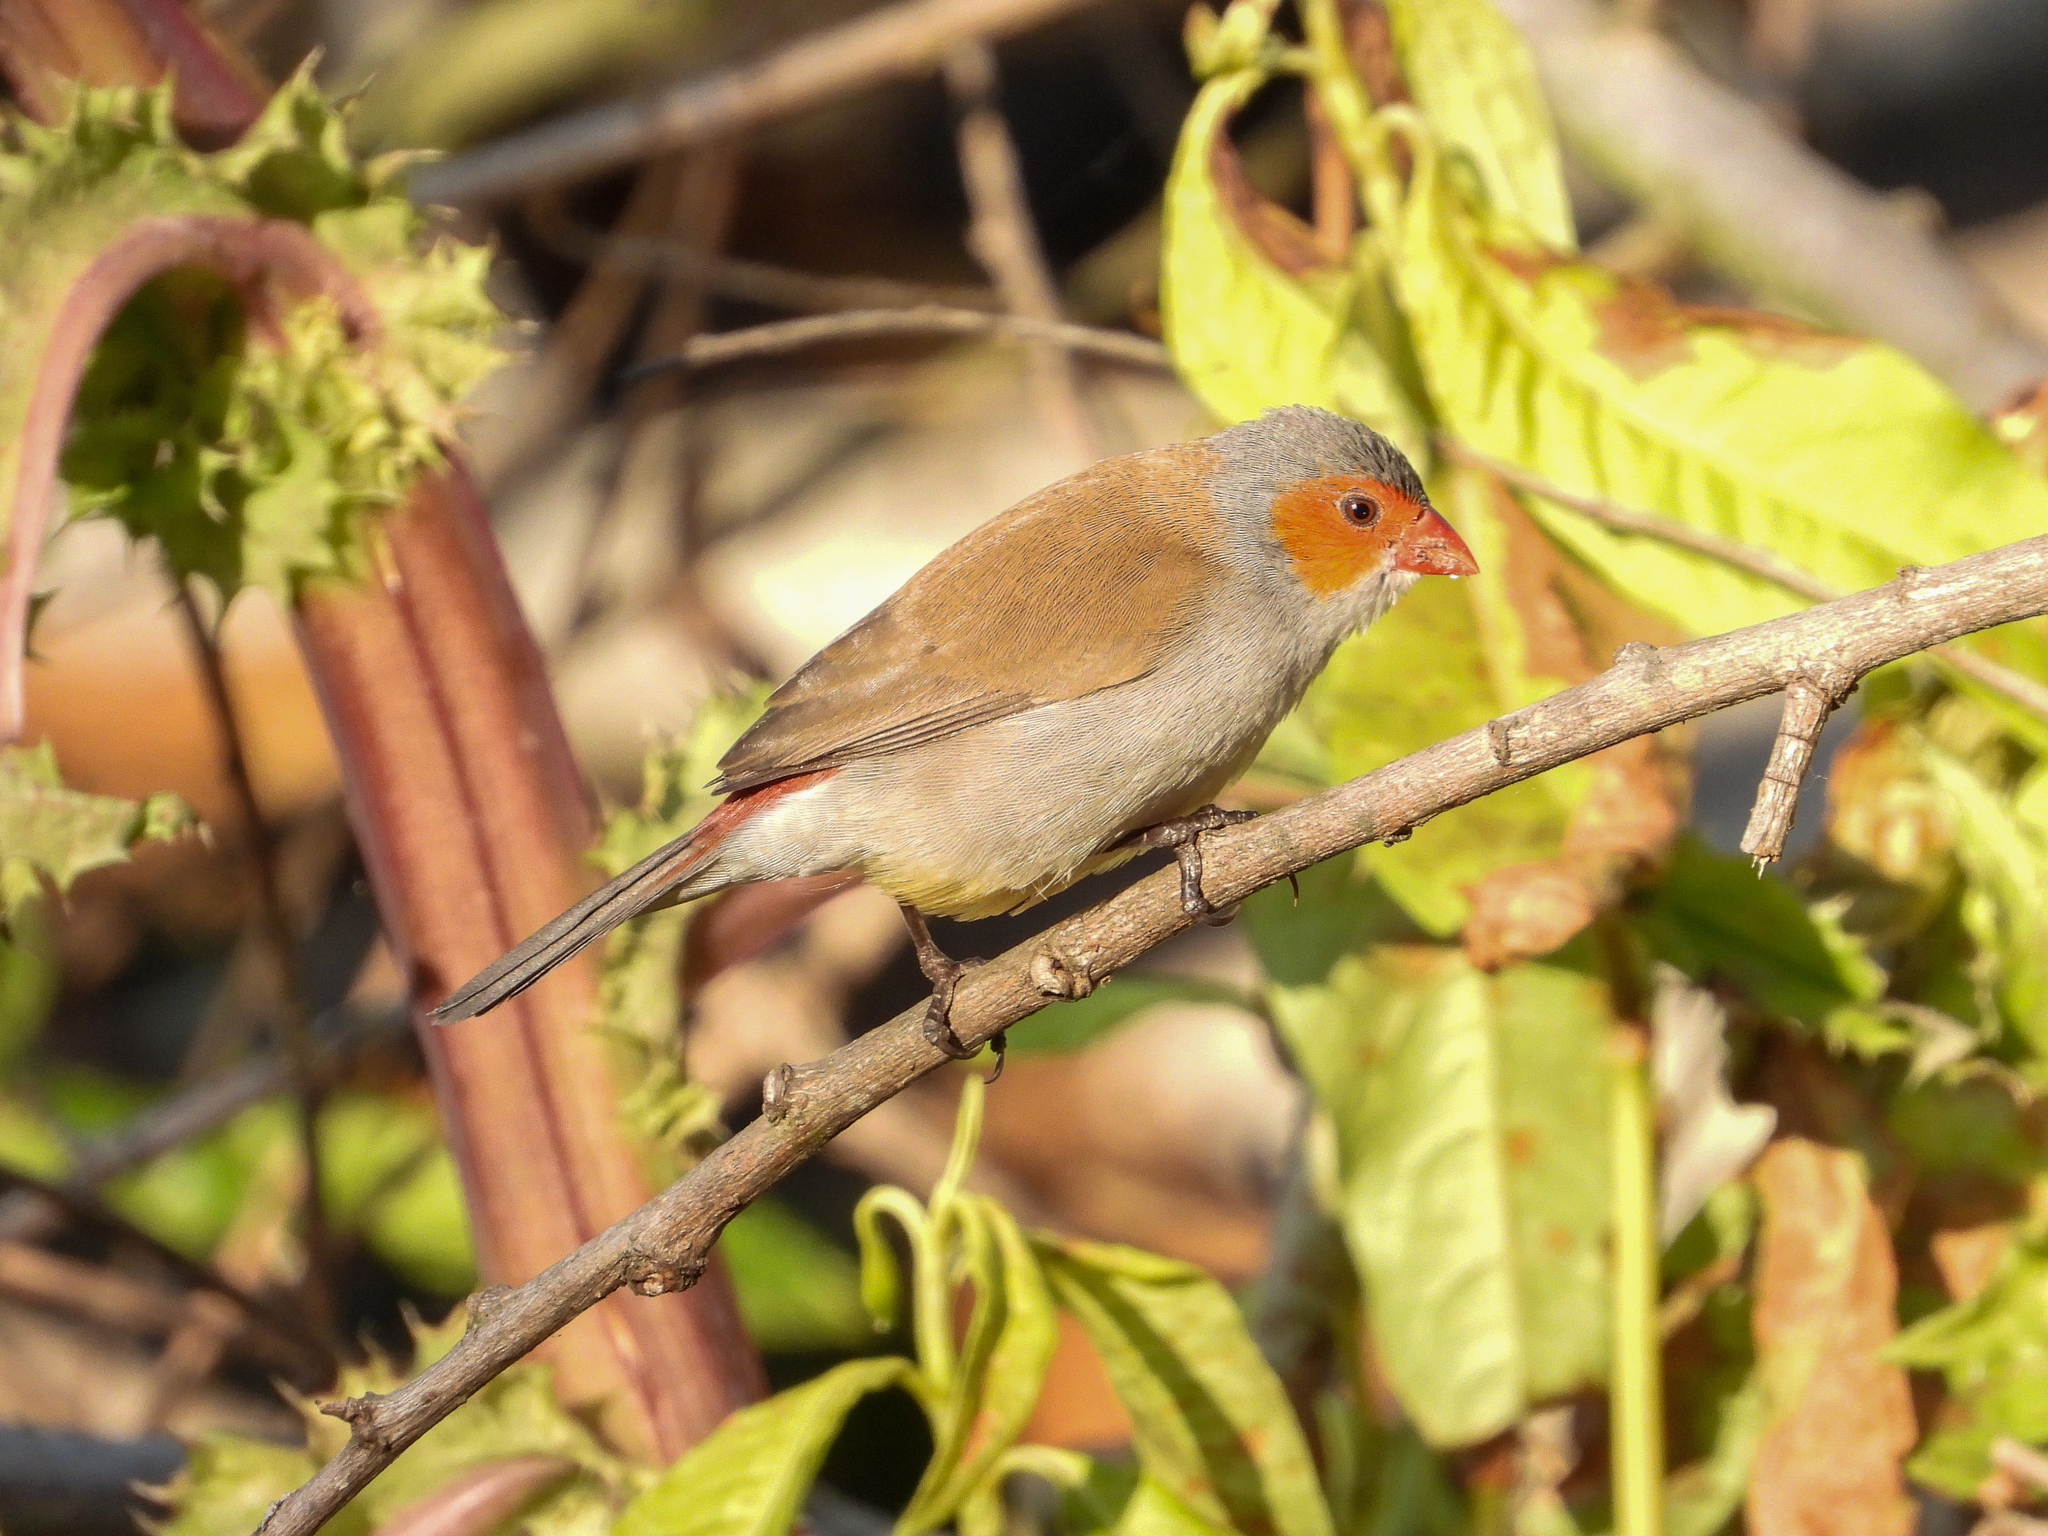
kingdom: Animalia
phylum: Chordata
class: Aves
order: Passeriformes
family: Estrildidae
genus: Estrilda
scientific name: Estrilda melpoda
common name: Orange-cheeked waxbill
